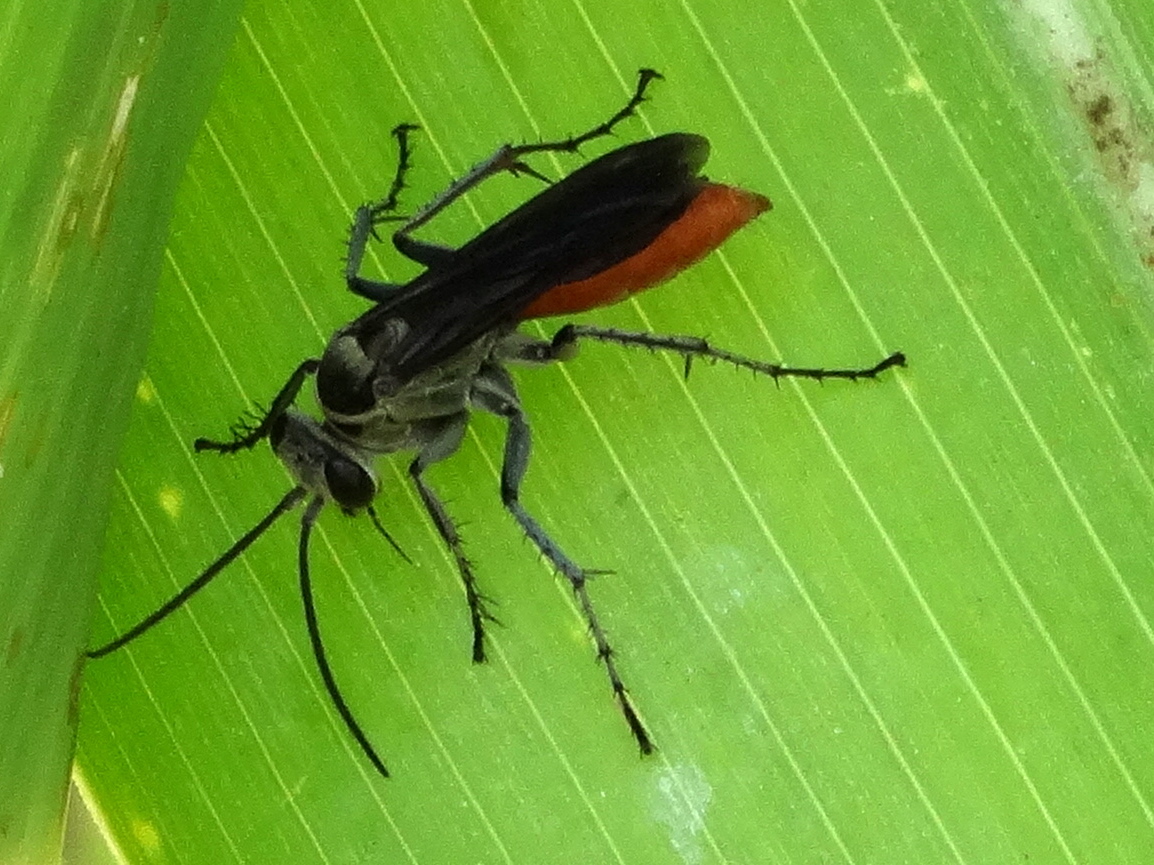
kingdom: Animalia
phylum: Arthropoda
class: Insecta
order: Hymenoptera
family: Pompilidae
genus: Xerochares
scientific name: Xerochares expulsus
